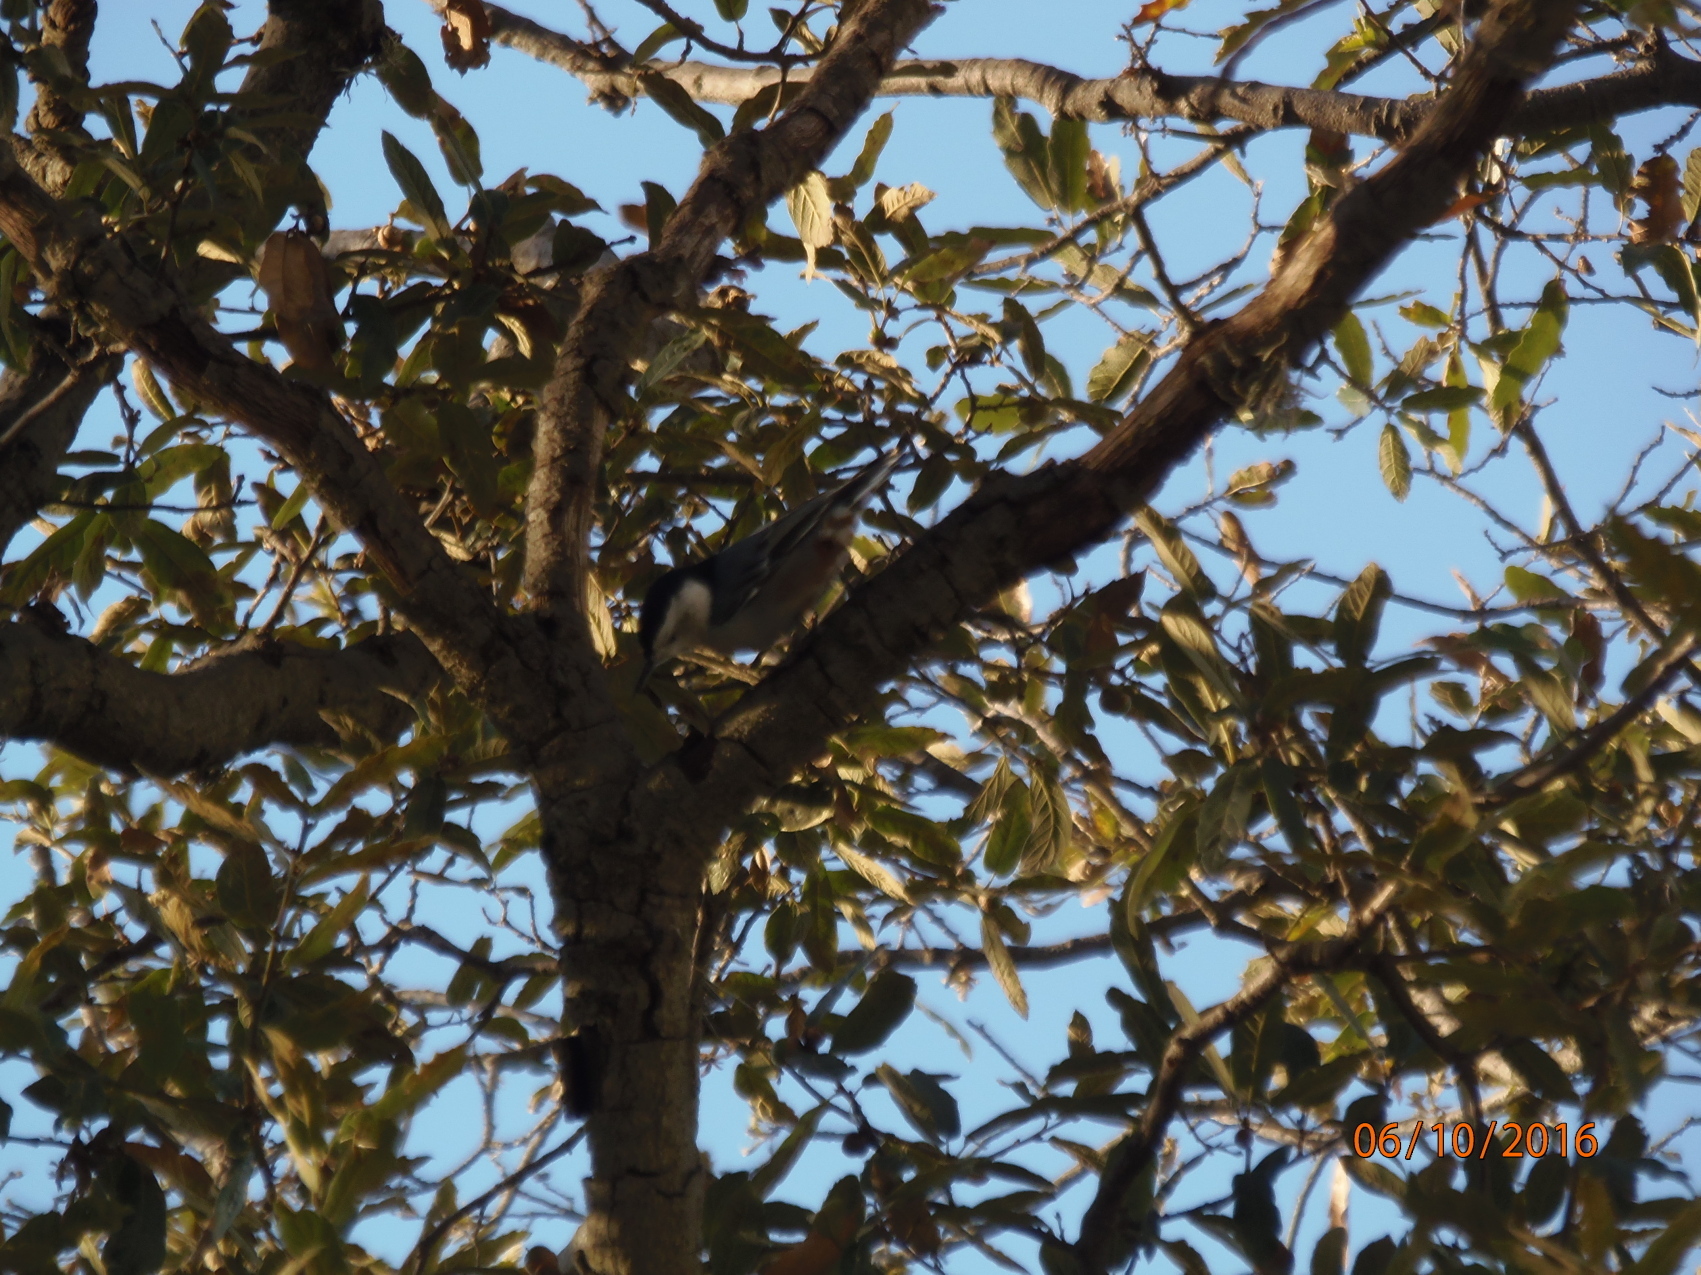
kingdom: Animalia
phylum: Chordata
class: Aves
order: Passeriformes
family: Sittidae
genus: Sitta
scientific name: Sitta carolinensis
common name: White-breasted nuthatch
